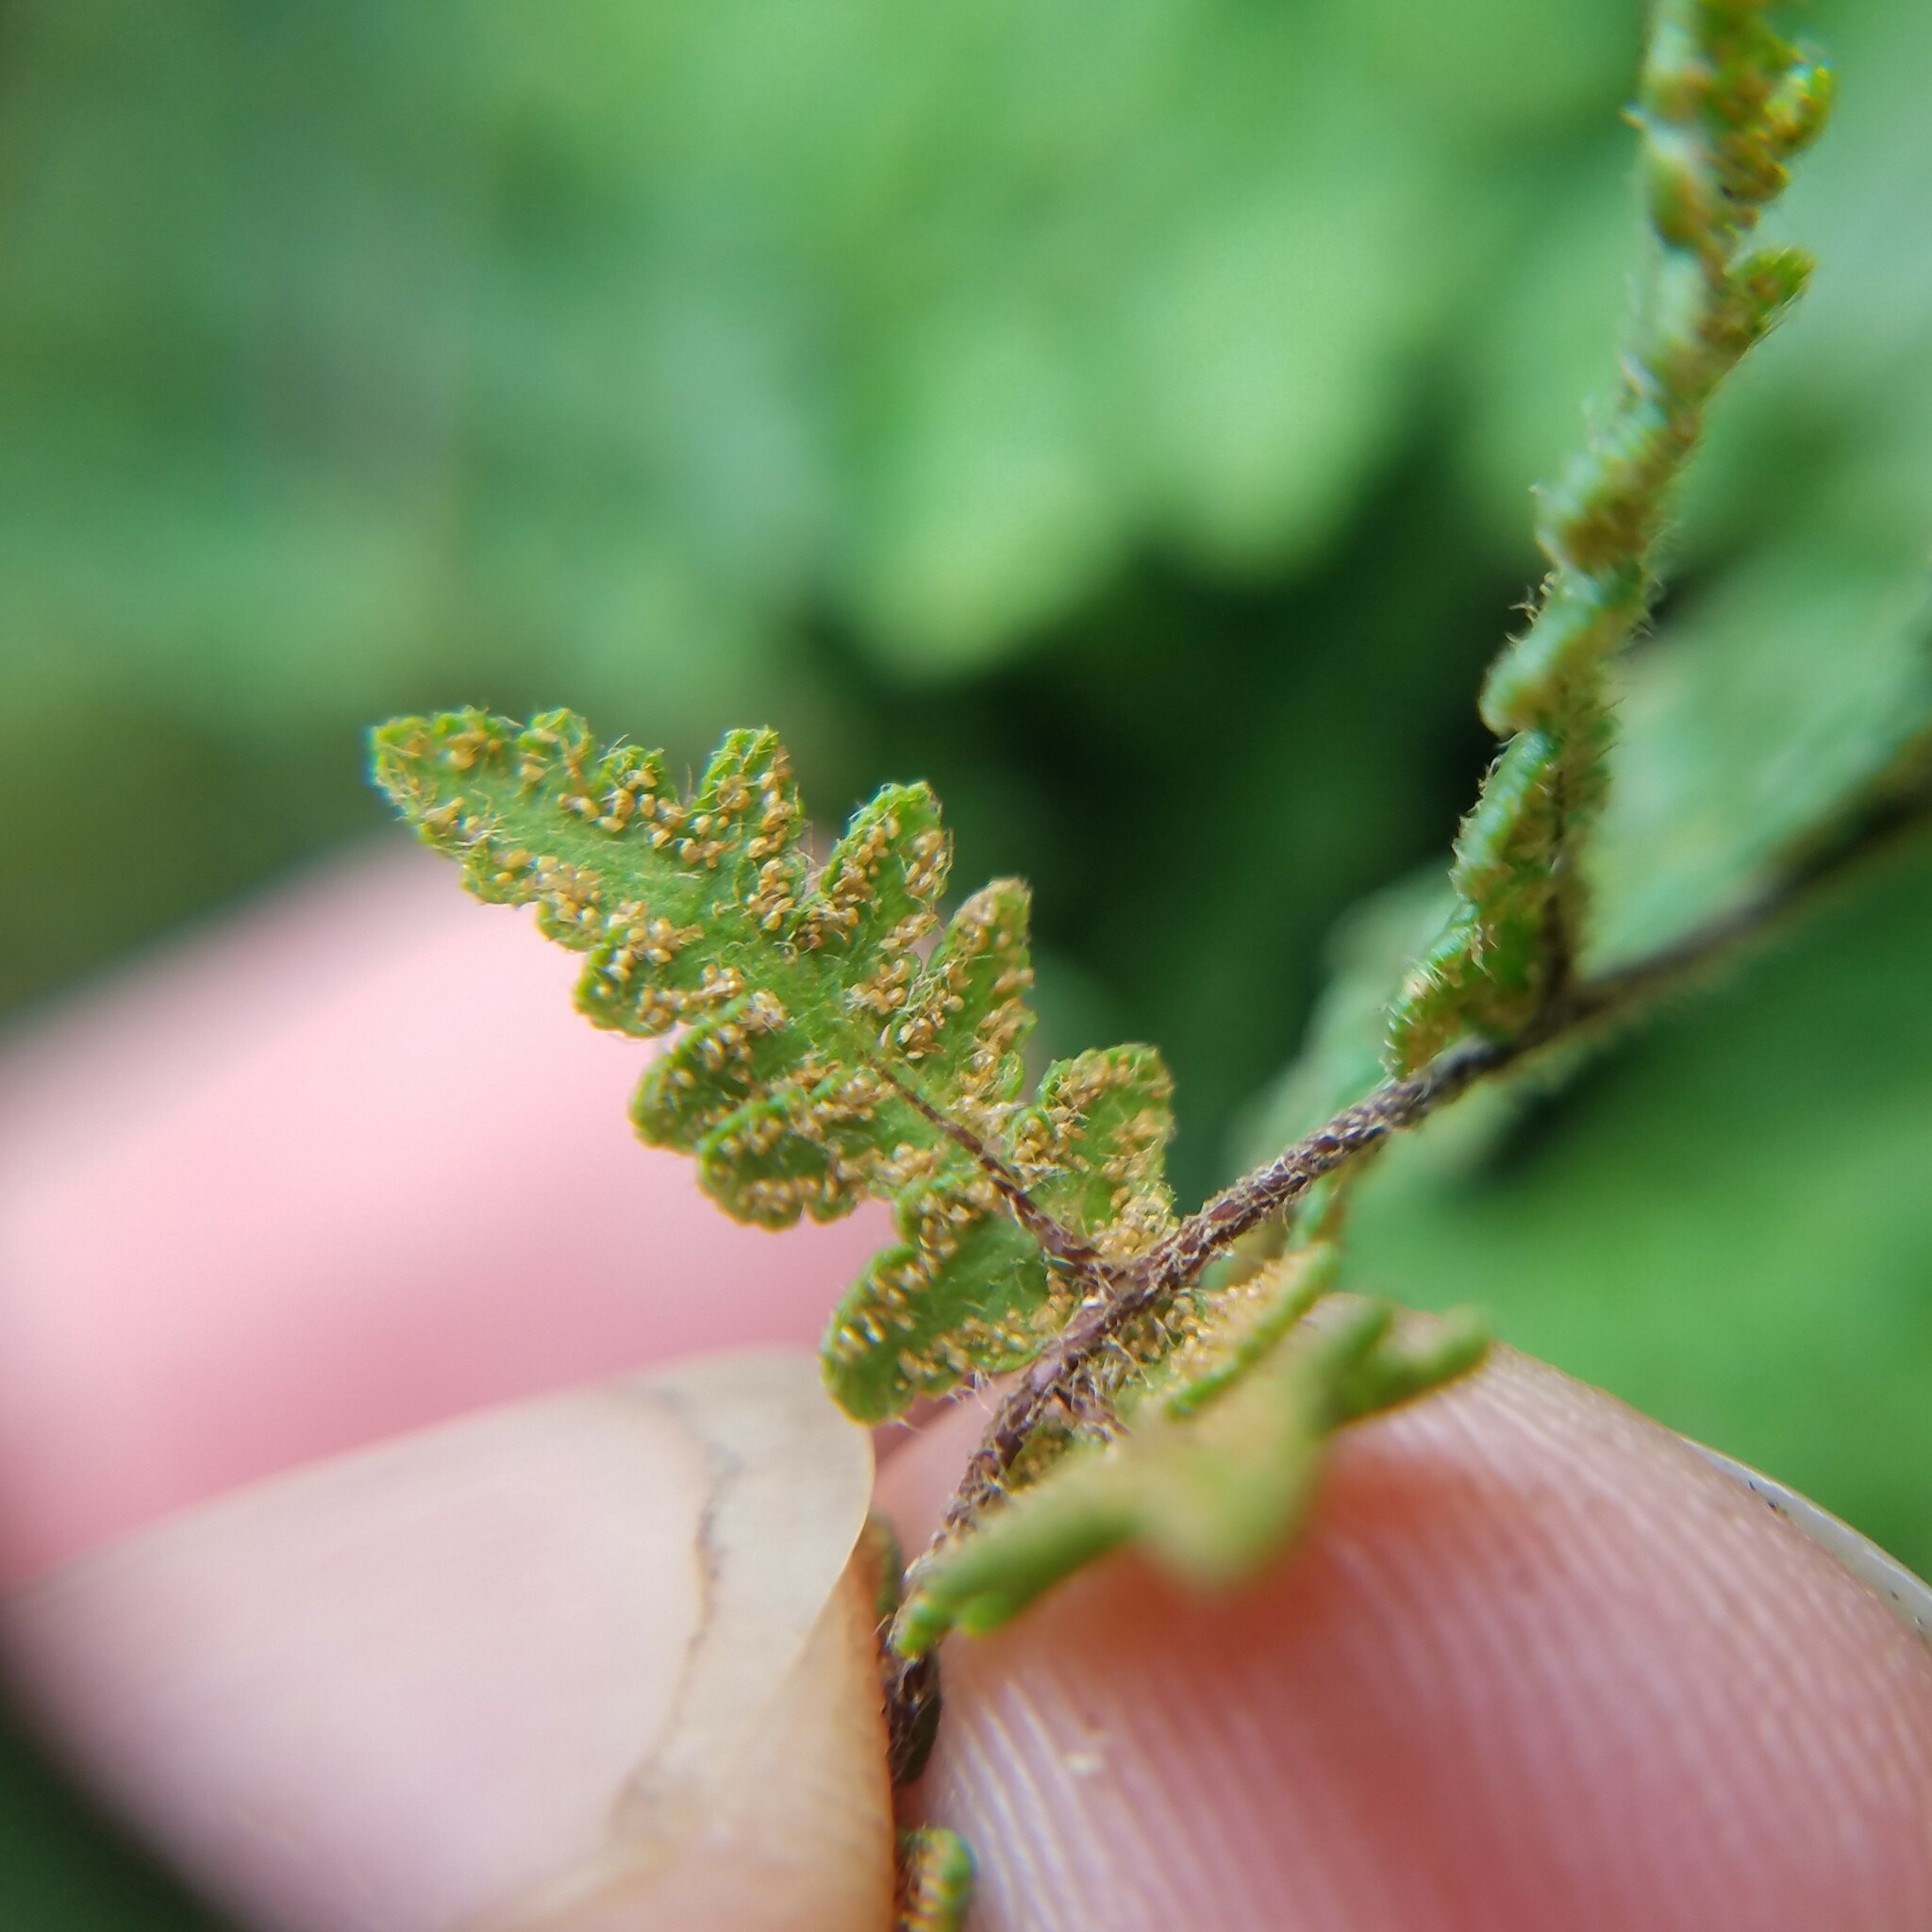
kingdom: Plantae
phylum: Tracheophyta
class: Polypodiopsida
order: Polypodiales
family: Pteridaceae
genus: Myriopteris
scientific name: Myriopteris lanosa
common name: Hairy lip fern
